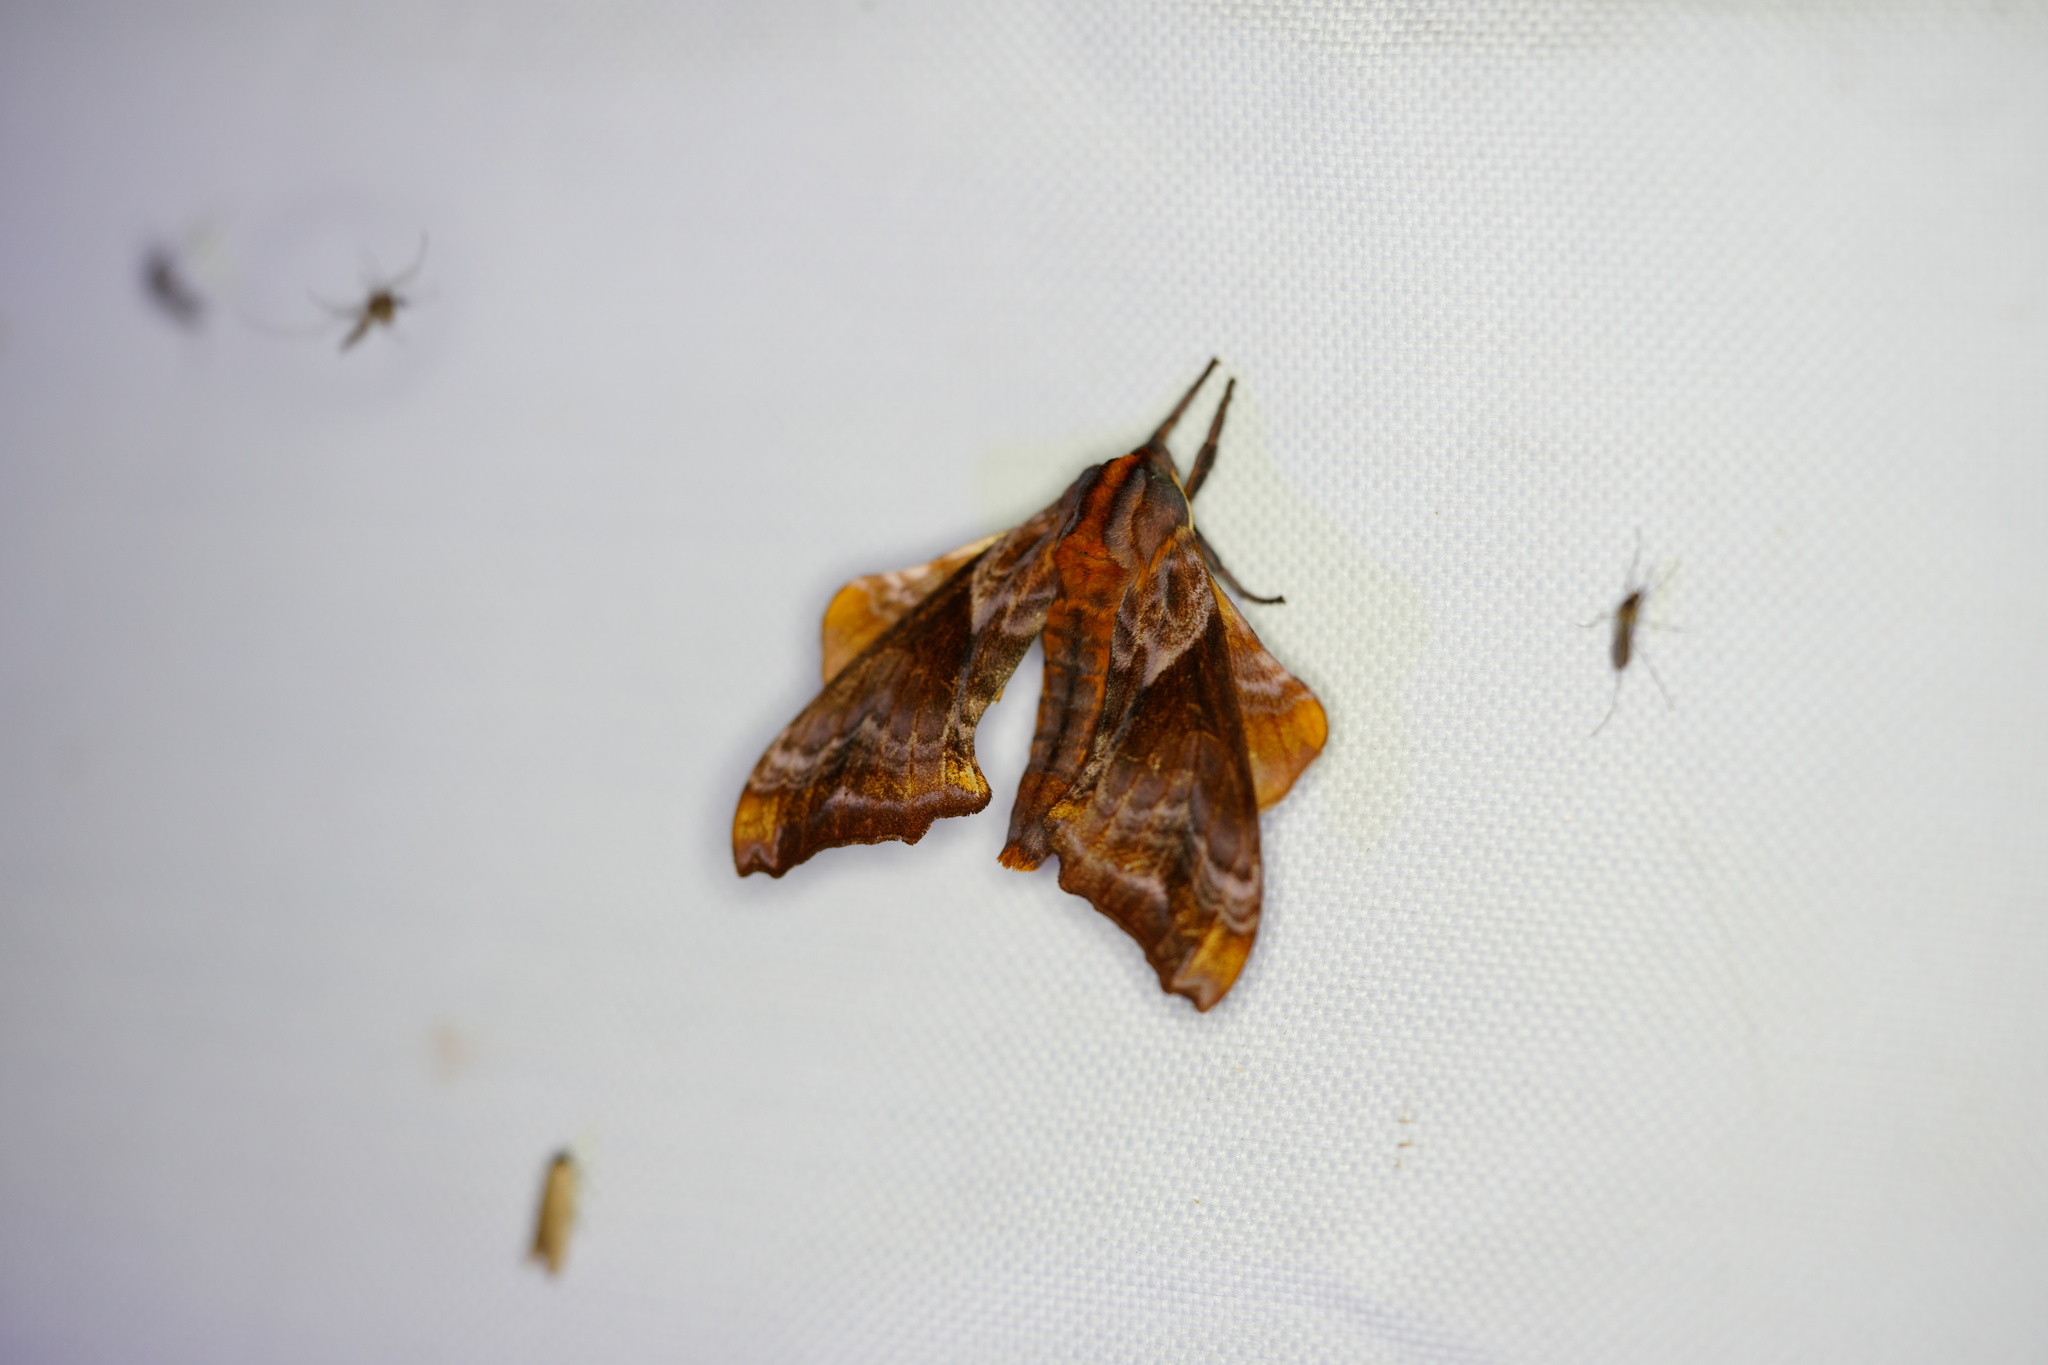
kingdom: Animalia
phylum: Arthropoda
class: Insecta
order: Lepidoptera
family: Sphingidae
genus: Paonias
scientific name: Paonias myops
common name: Small-eyed sphinx
